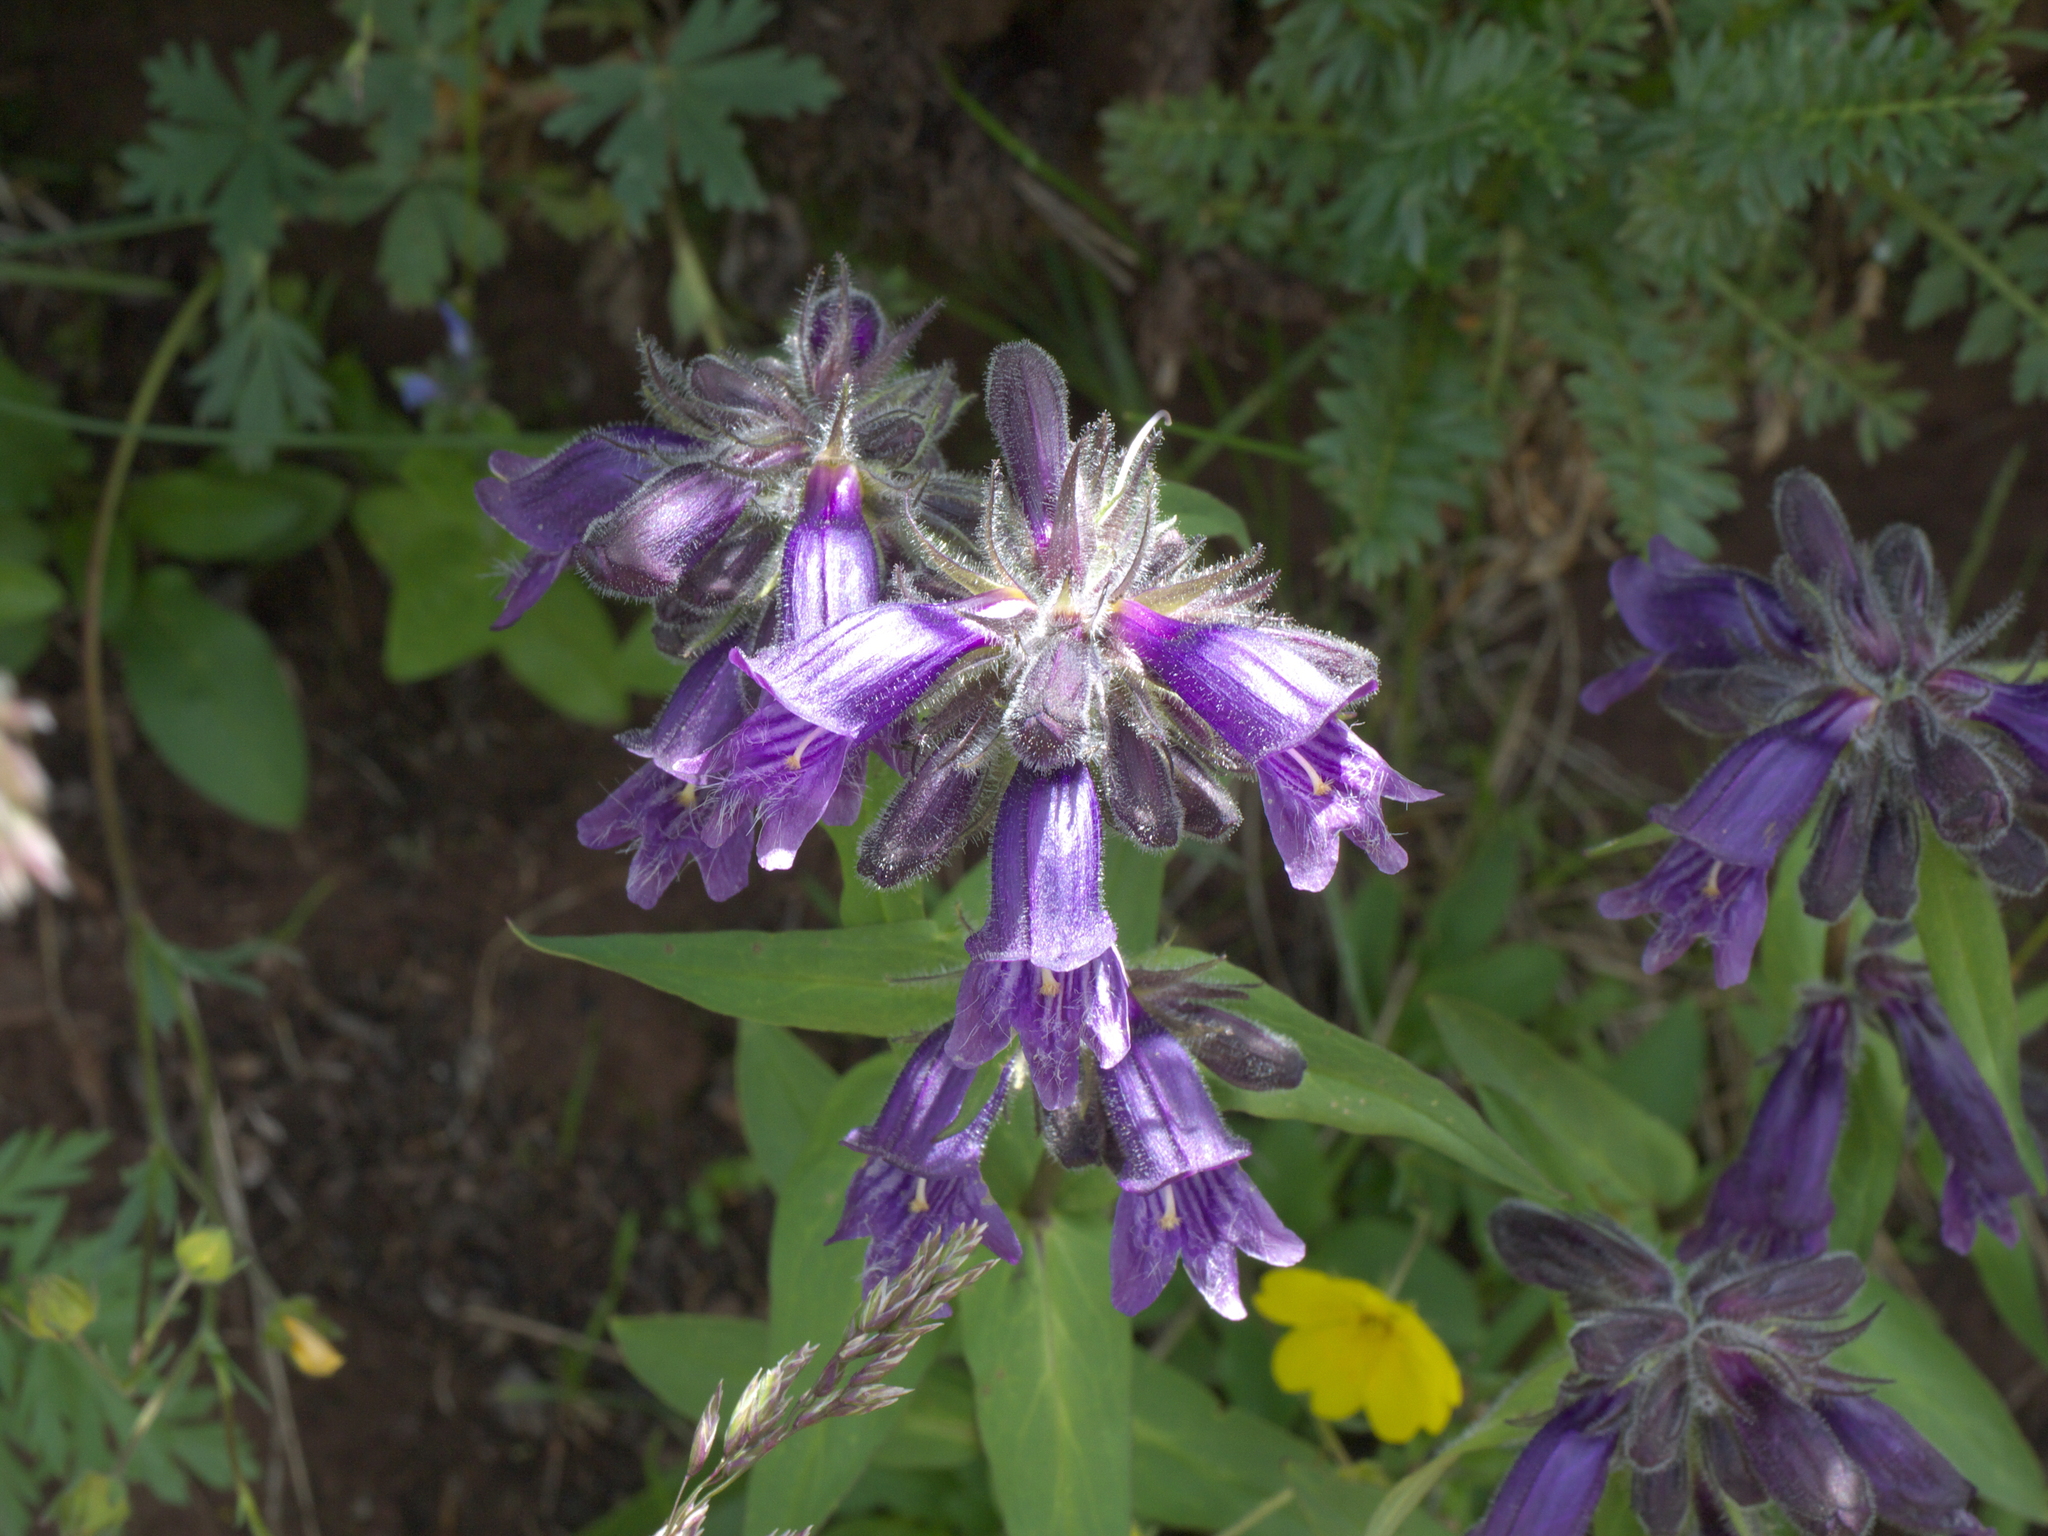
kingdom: Plantae
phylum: Tracheophyta
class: Magnoliopsida
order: Lamiales
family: Plantaginaceae
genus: Penstemon
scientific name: Penstemon whippleanus
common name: Whipple's penstemon
